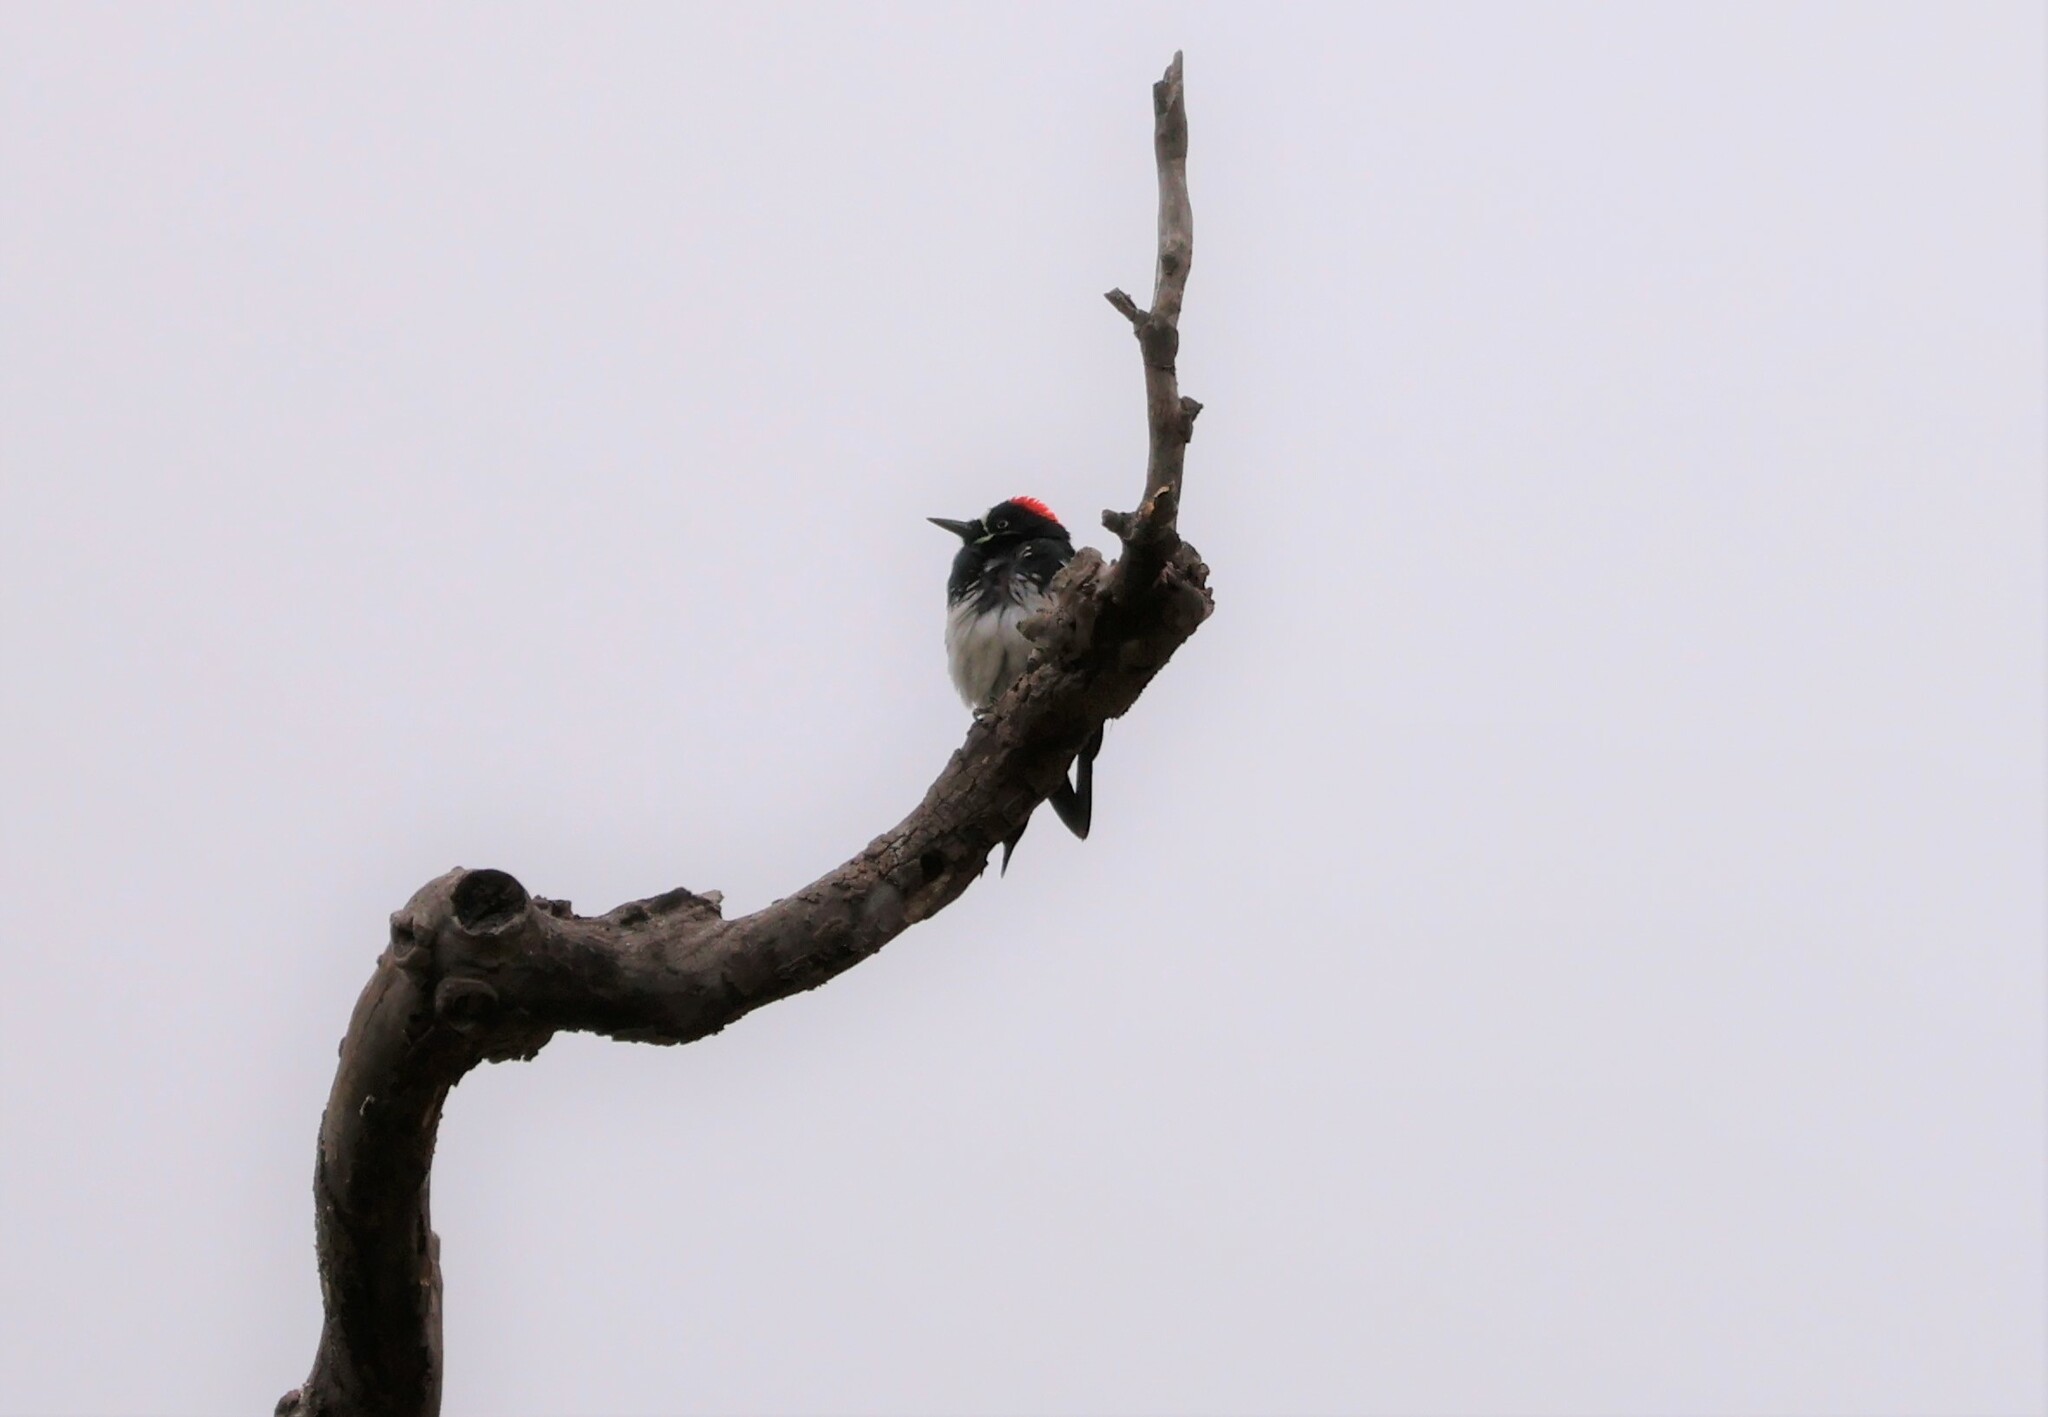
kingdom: Animalia
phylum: Chordata
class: Aves
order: Piciformes
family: Picidae
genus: Melanerpes
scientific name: Melanerpes formicivorus
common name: Acorn woodpecker
